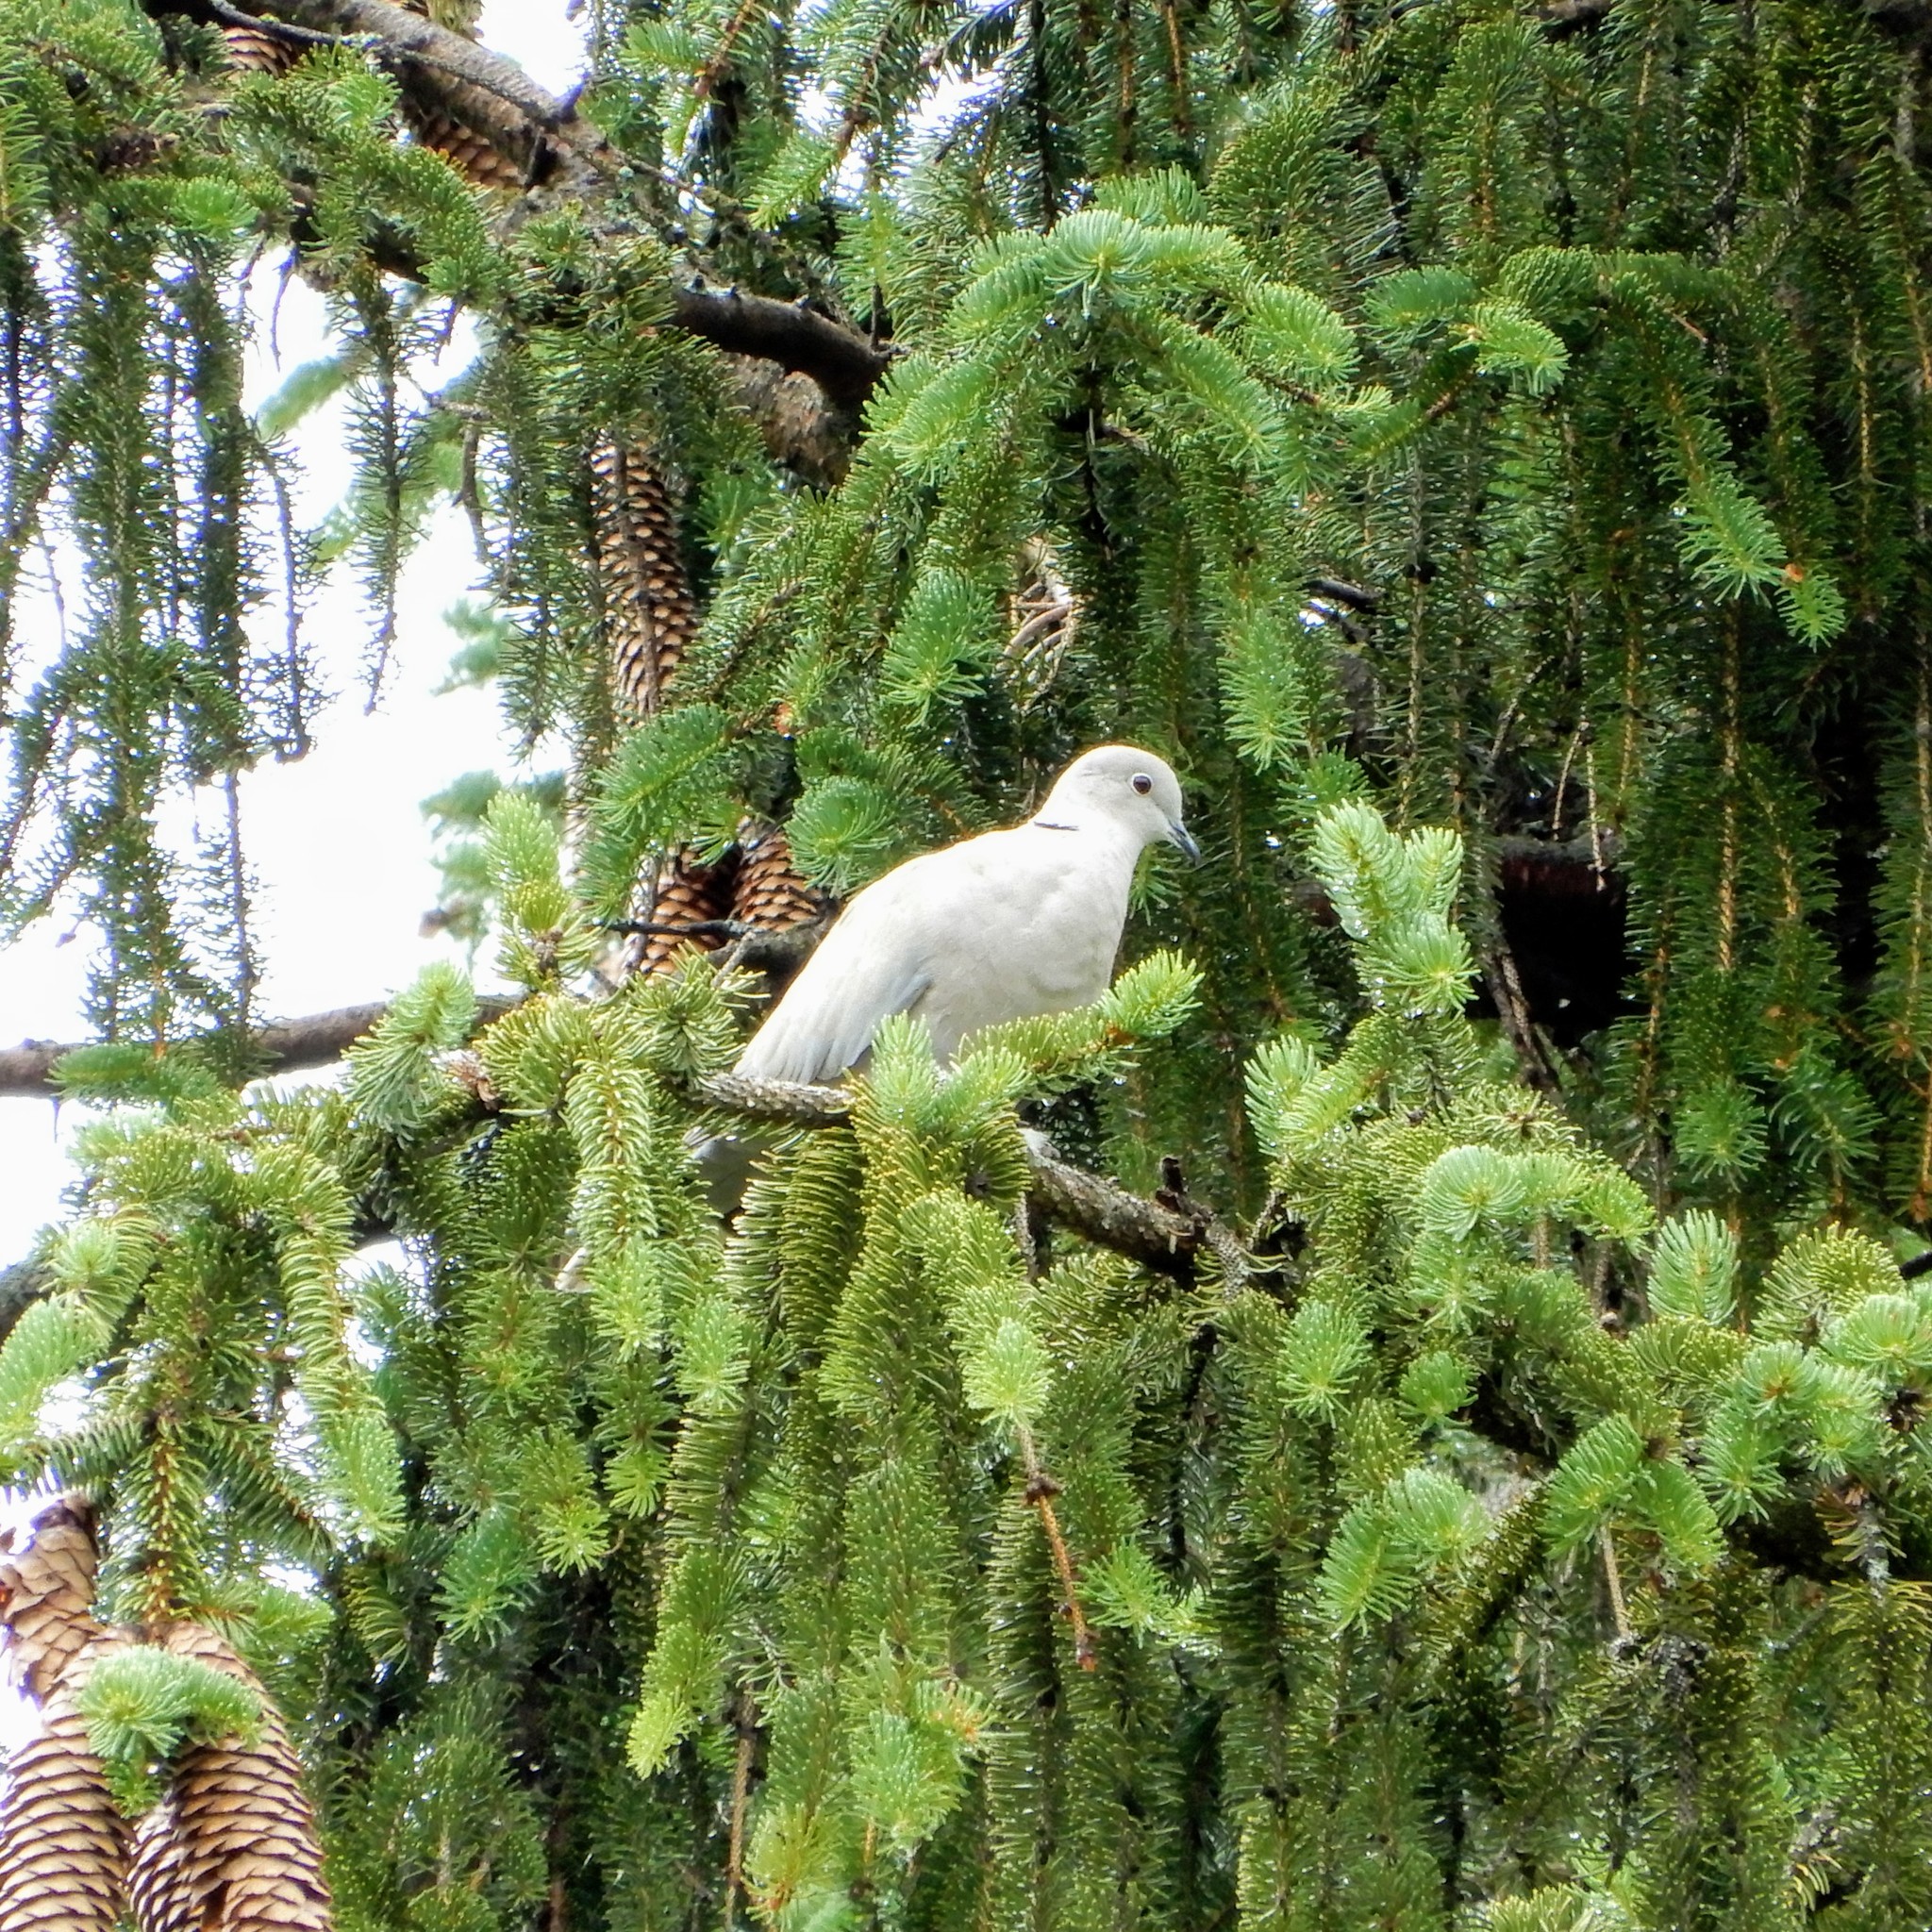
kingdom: Animalia
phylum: Chordata
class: Aves
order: Columbiformes
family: Columbidae
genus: Streptopelia
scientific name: Streptopelia decaocto
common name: Eurasian collared dove
